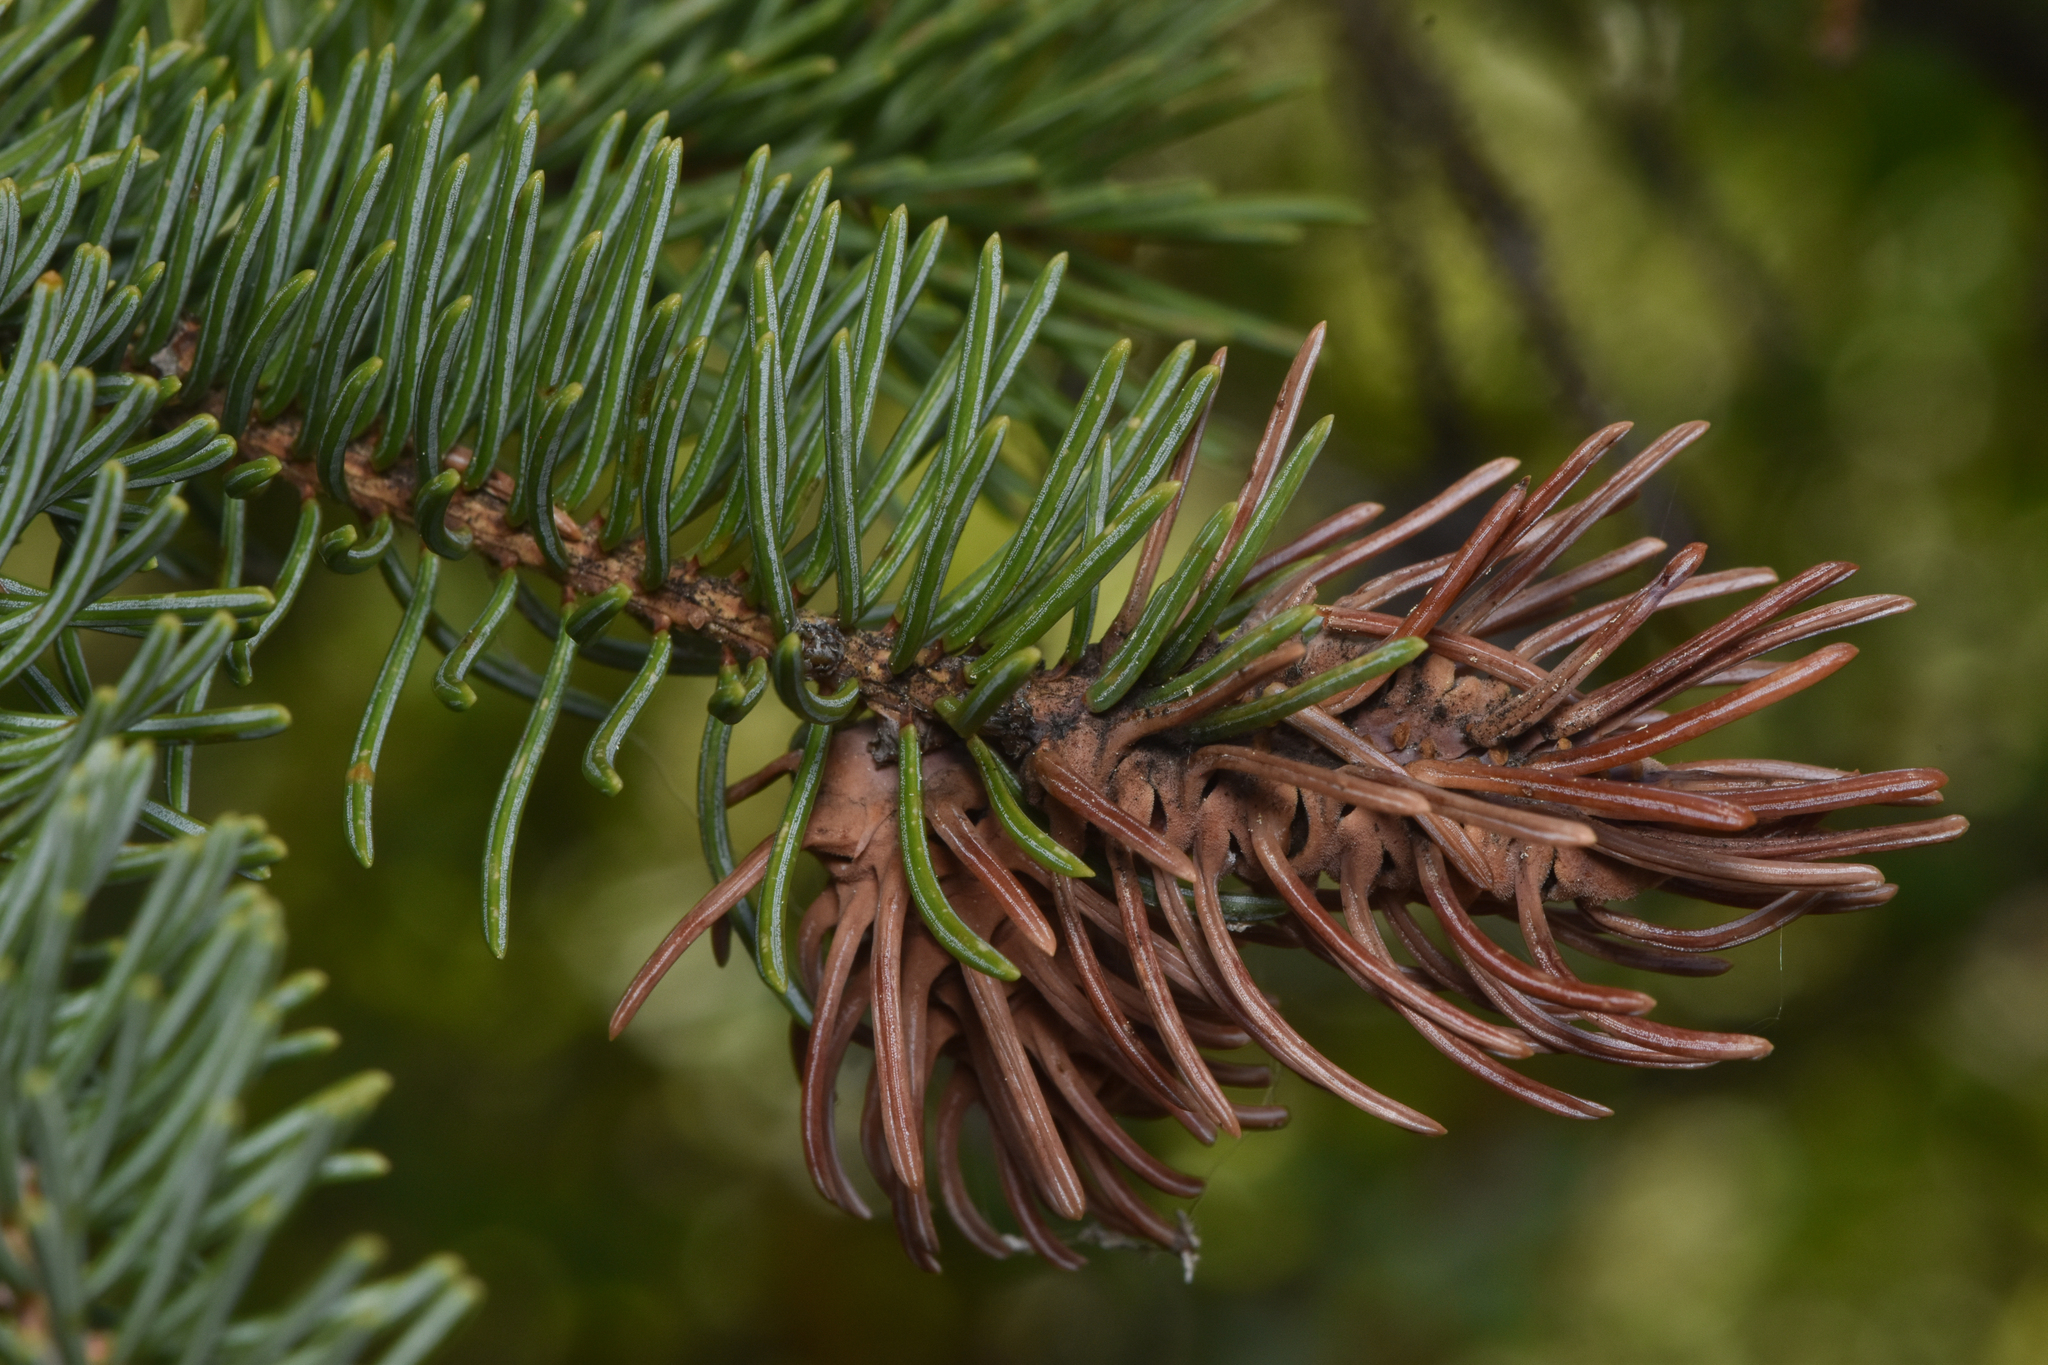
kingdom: Animalia
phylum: Arthropoda
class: Insecta
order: Hemiptera
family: Adelgidae
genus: Adelges
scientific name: Adelges cooleyi
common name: Cooley spruce gall adelgid
